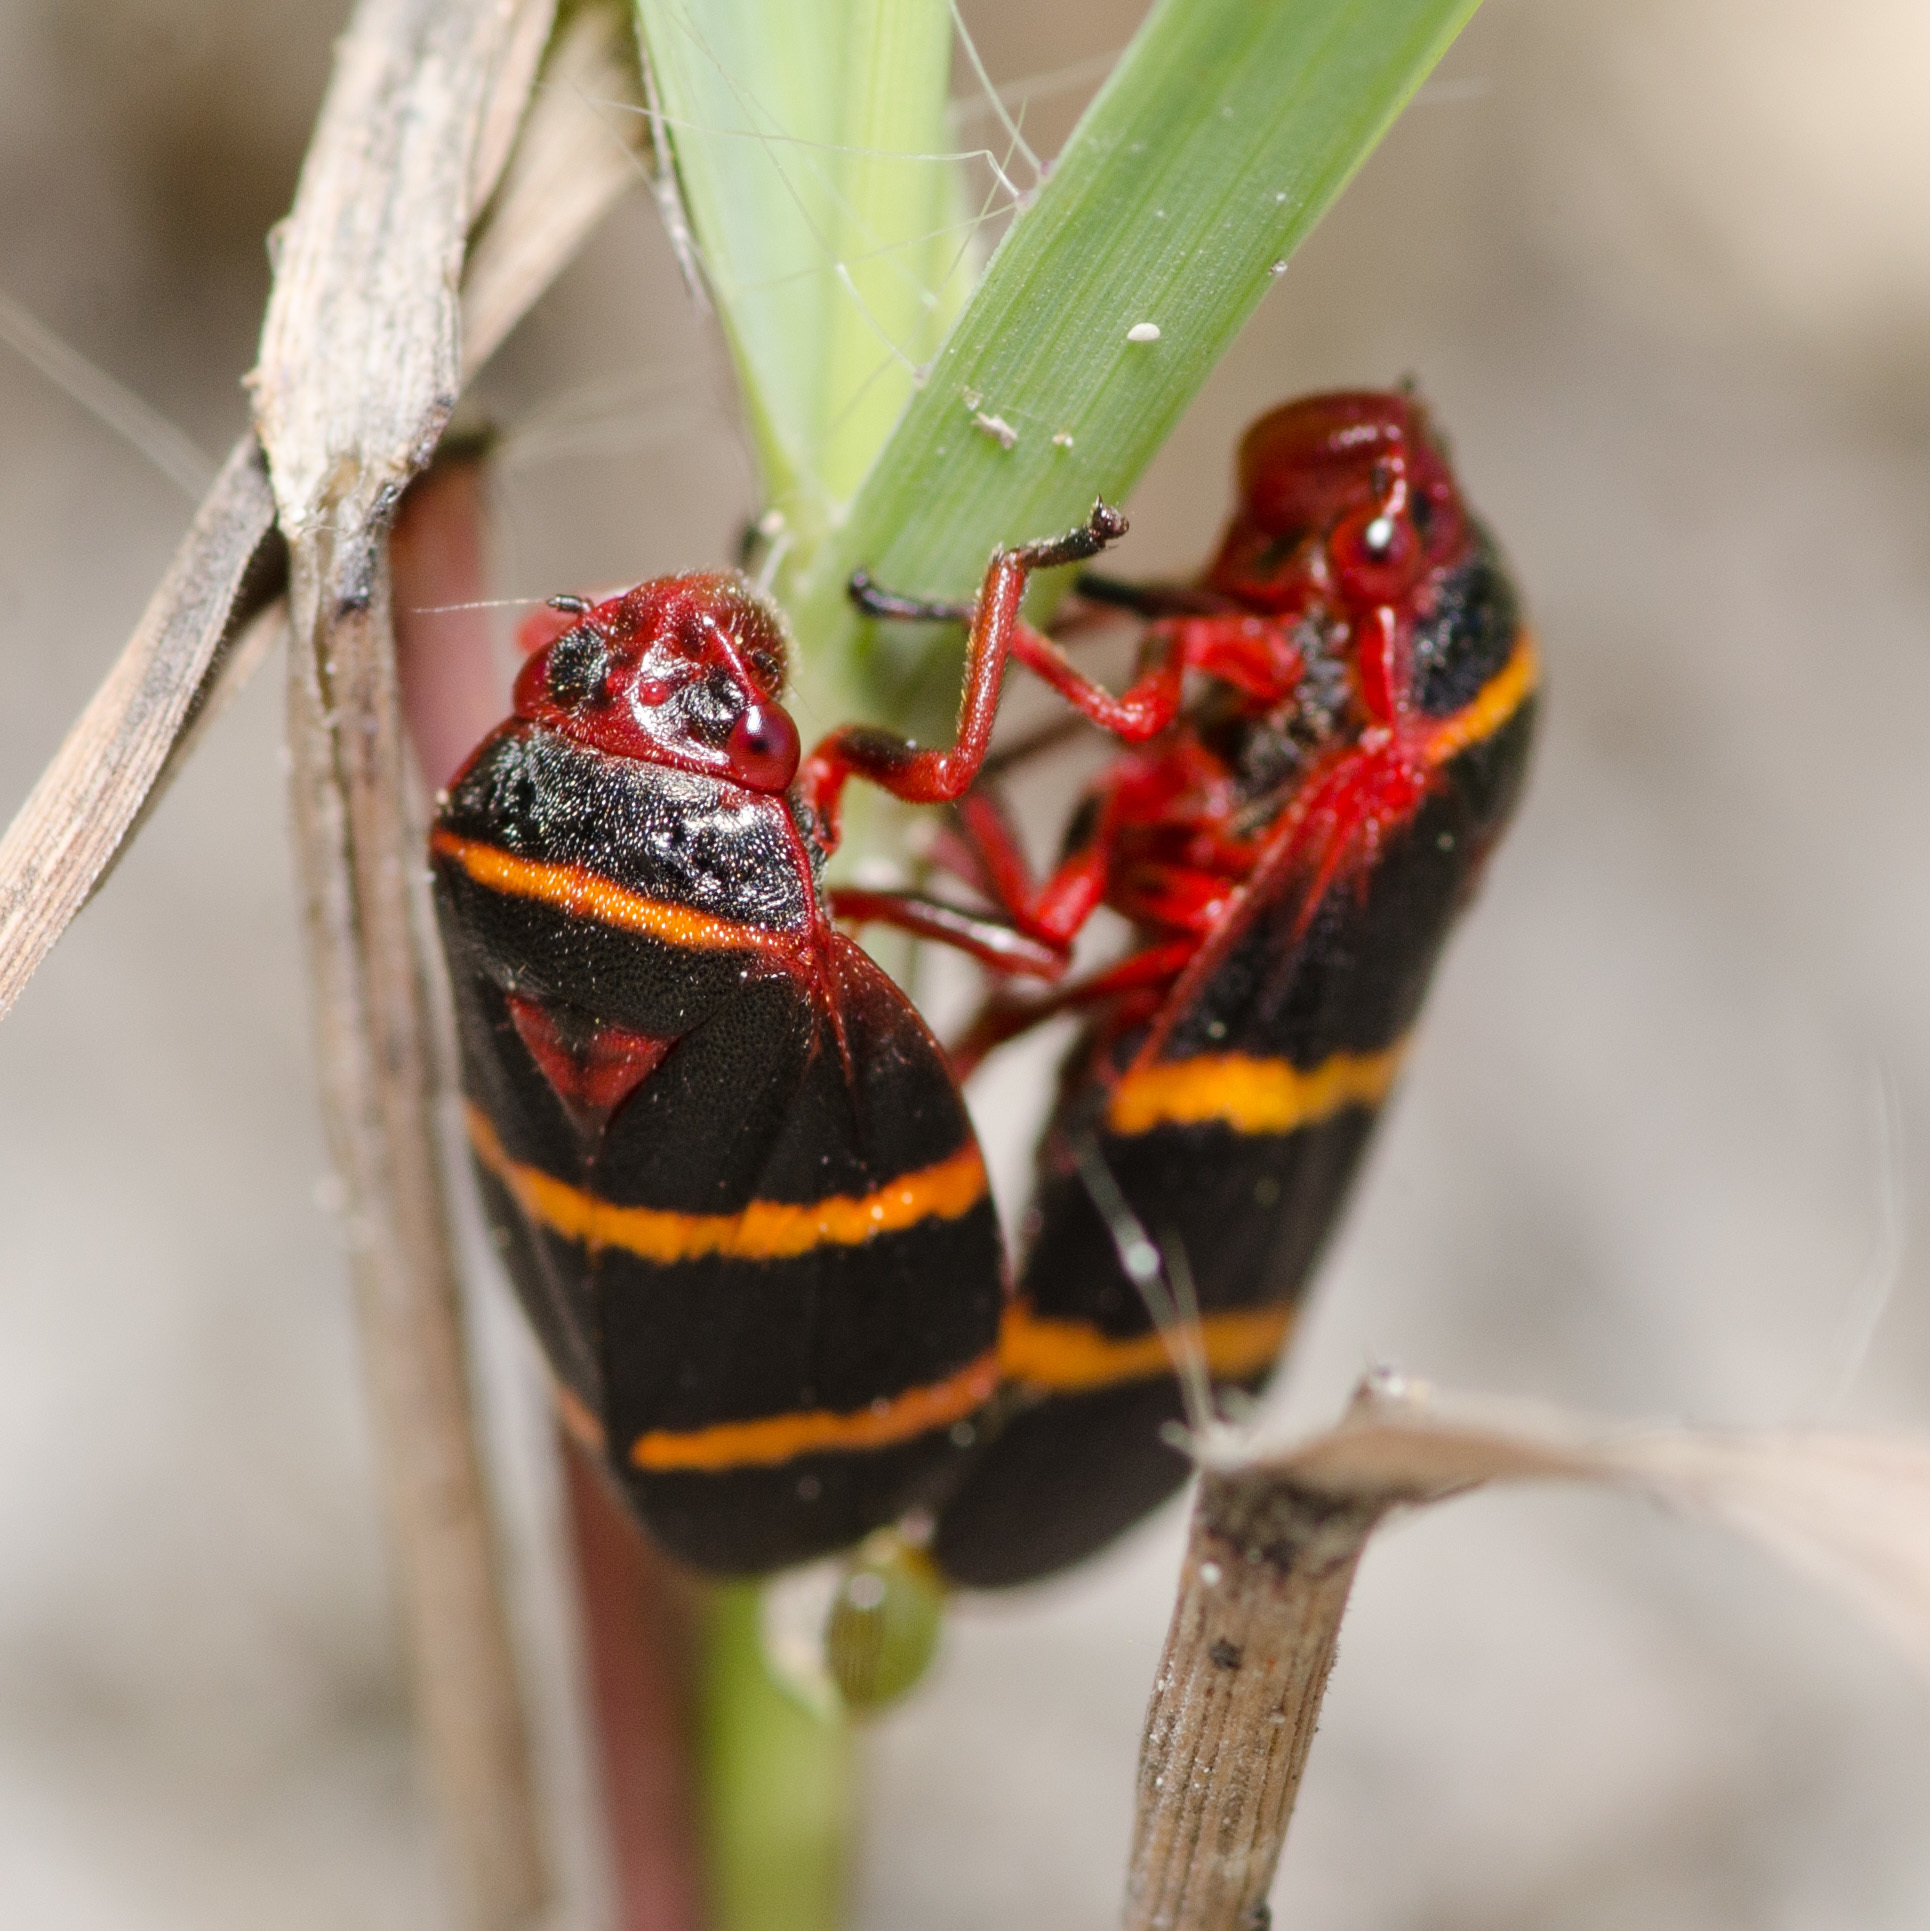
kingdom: Animalia
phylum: Arthropoda
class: Insecta
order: Hemiptera
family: Cercopidae
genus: Prosapia
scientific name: Prosapia bicincta
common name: Twolined spittlebug
